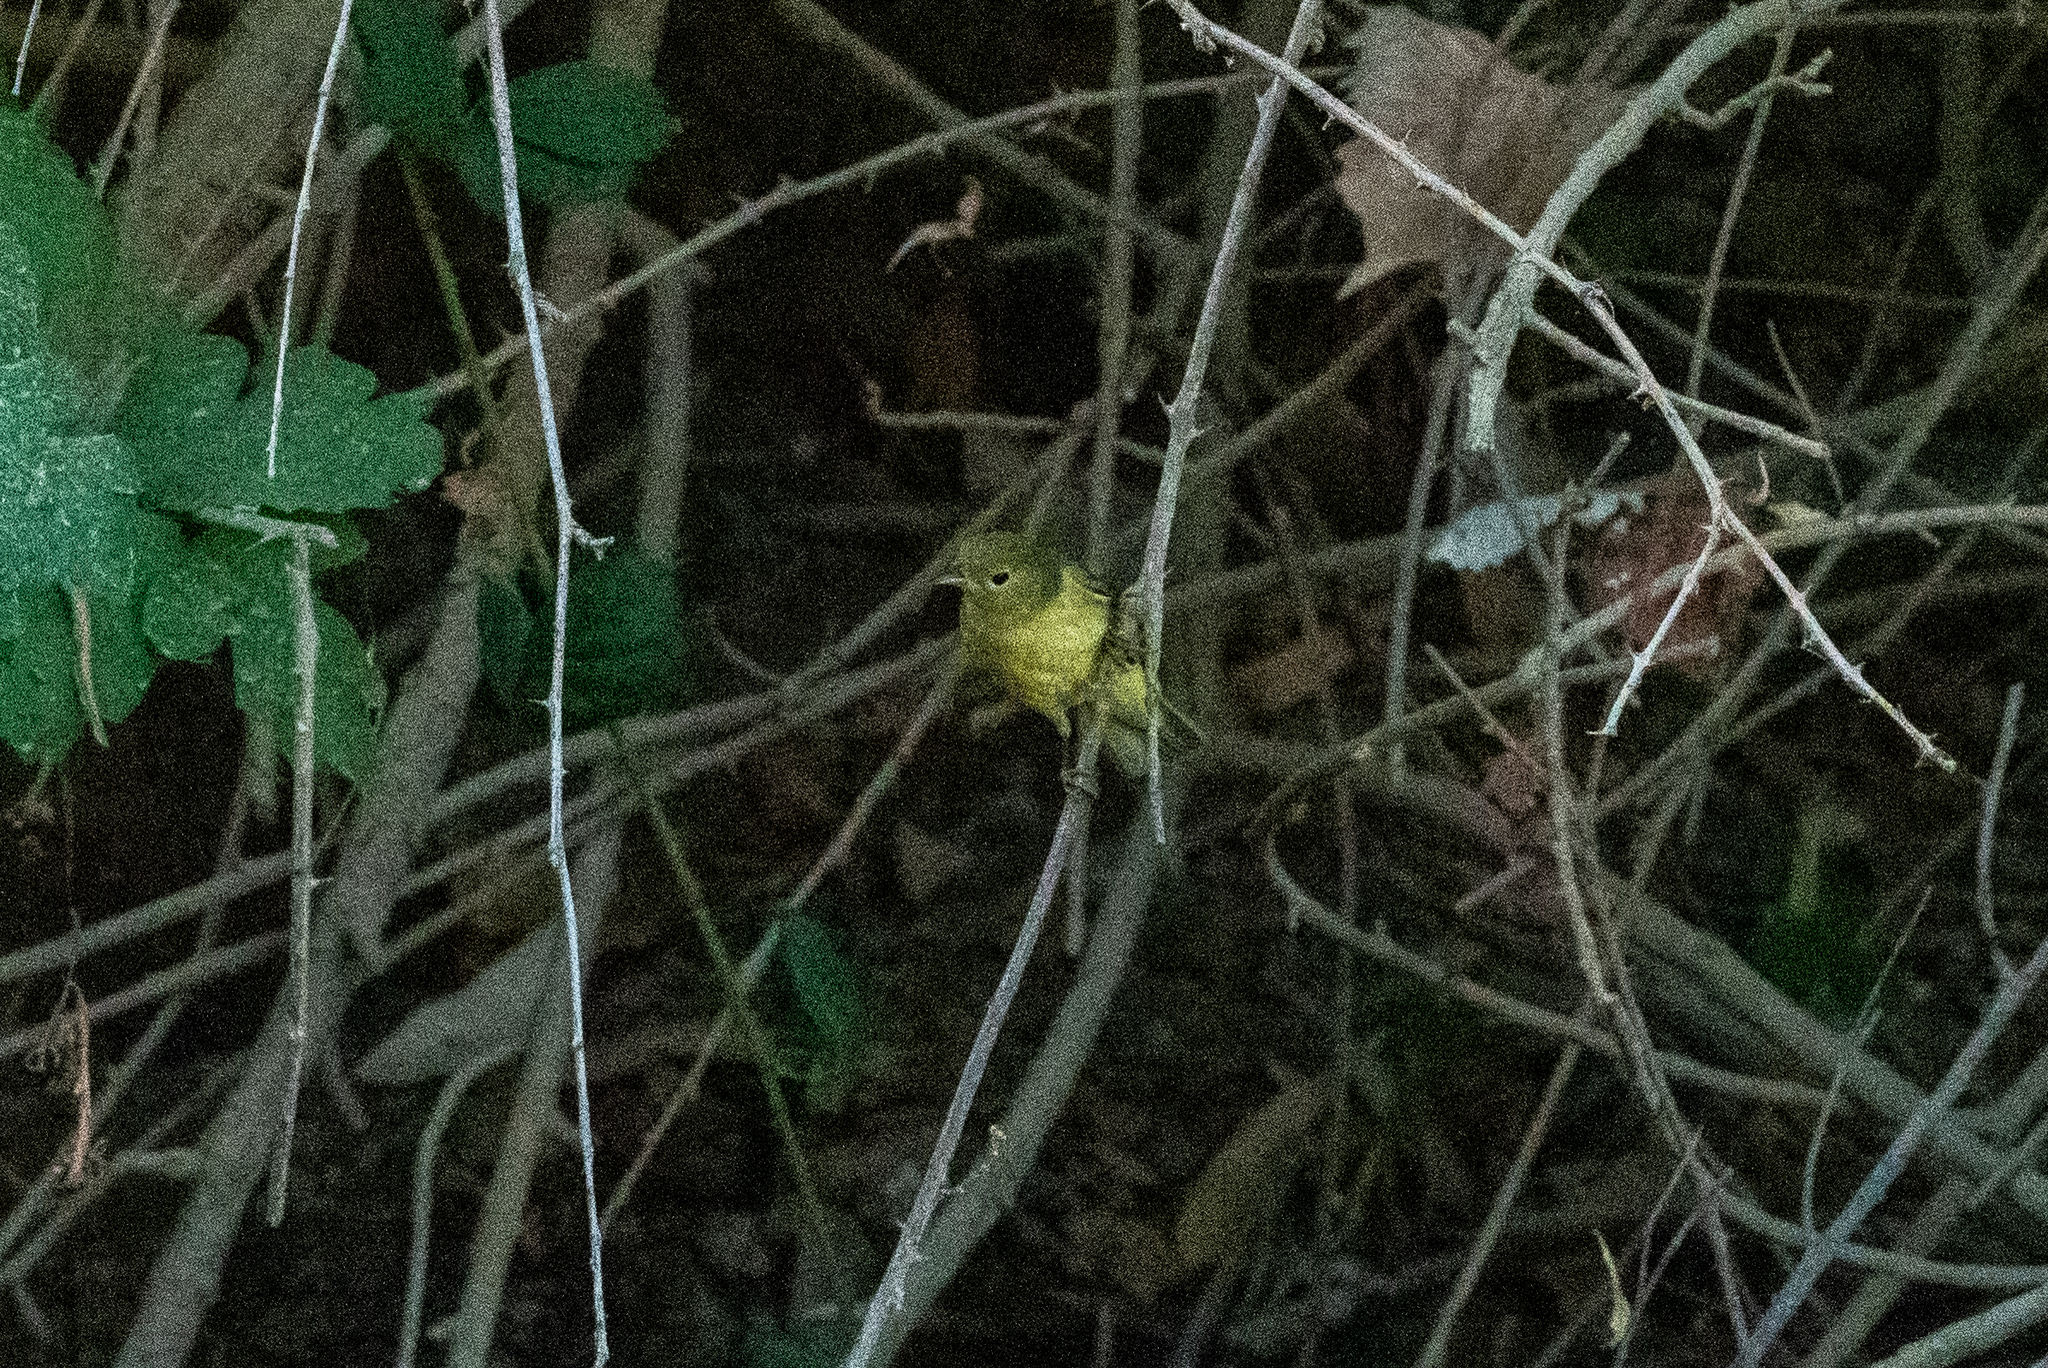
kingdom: Animalia
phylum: Chordata
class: Aves
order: Passeriformes
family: Parulidae
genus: Setophaga
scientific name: Setophaga petechia
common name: Yellow warbler
